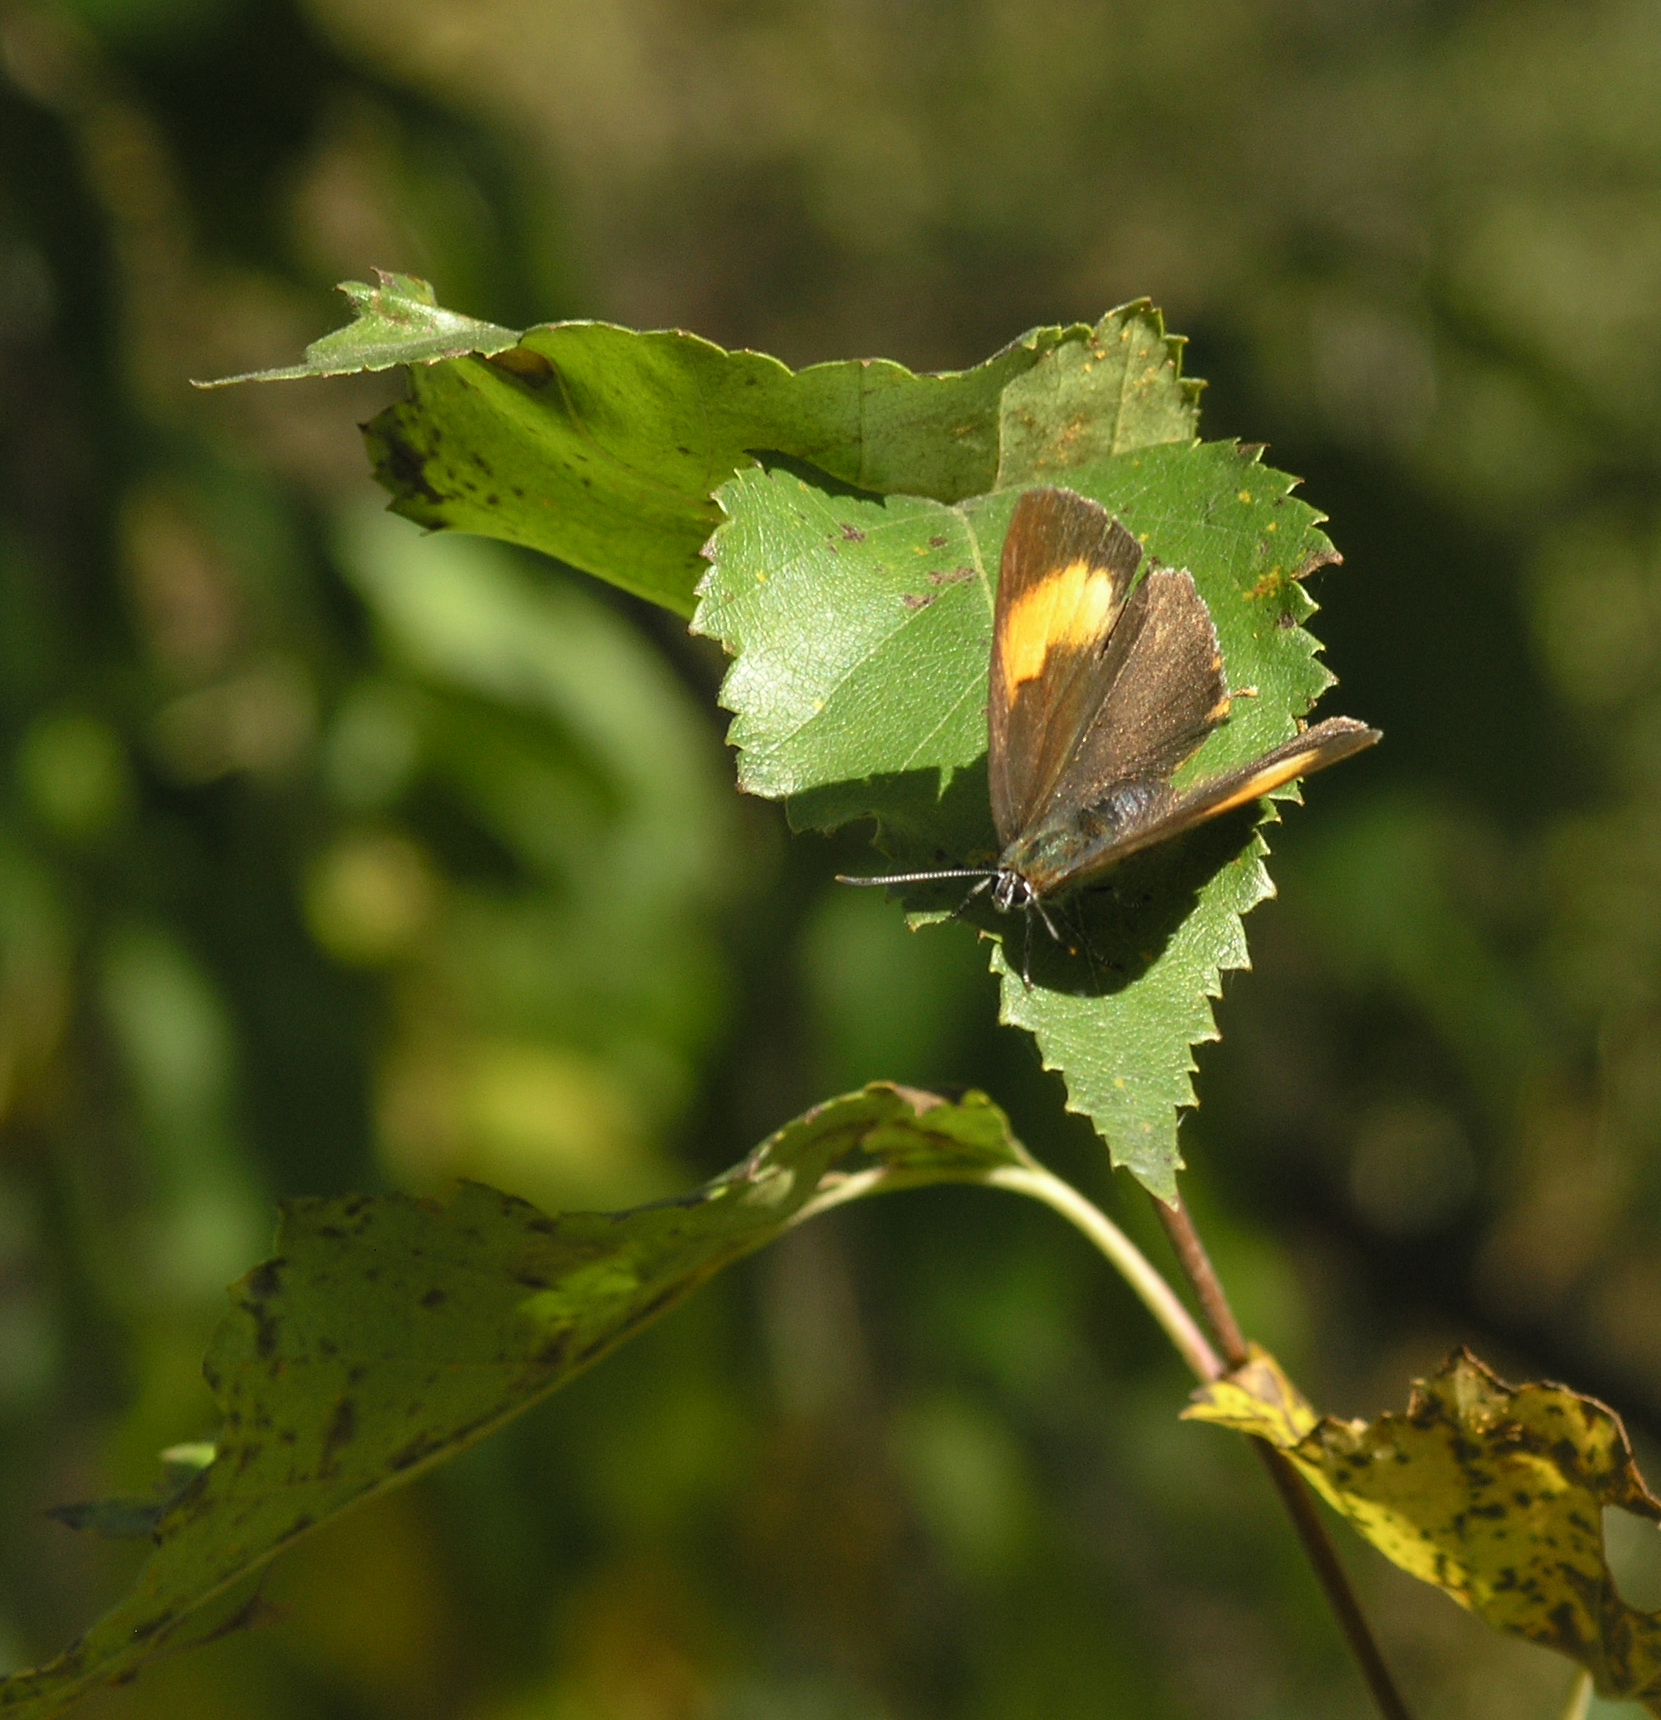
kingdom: Animalia
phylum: Arthropoda
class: Insecta
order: Lepidoptera
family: Lycaenidae
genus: Thecla
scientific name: Thecla betulae
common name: Brown hairstreak
